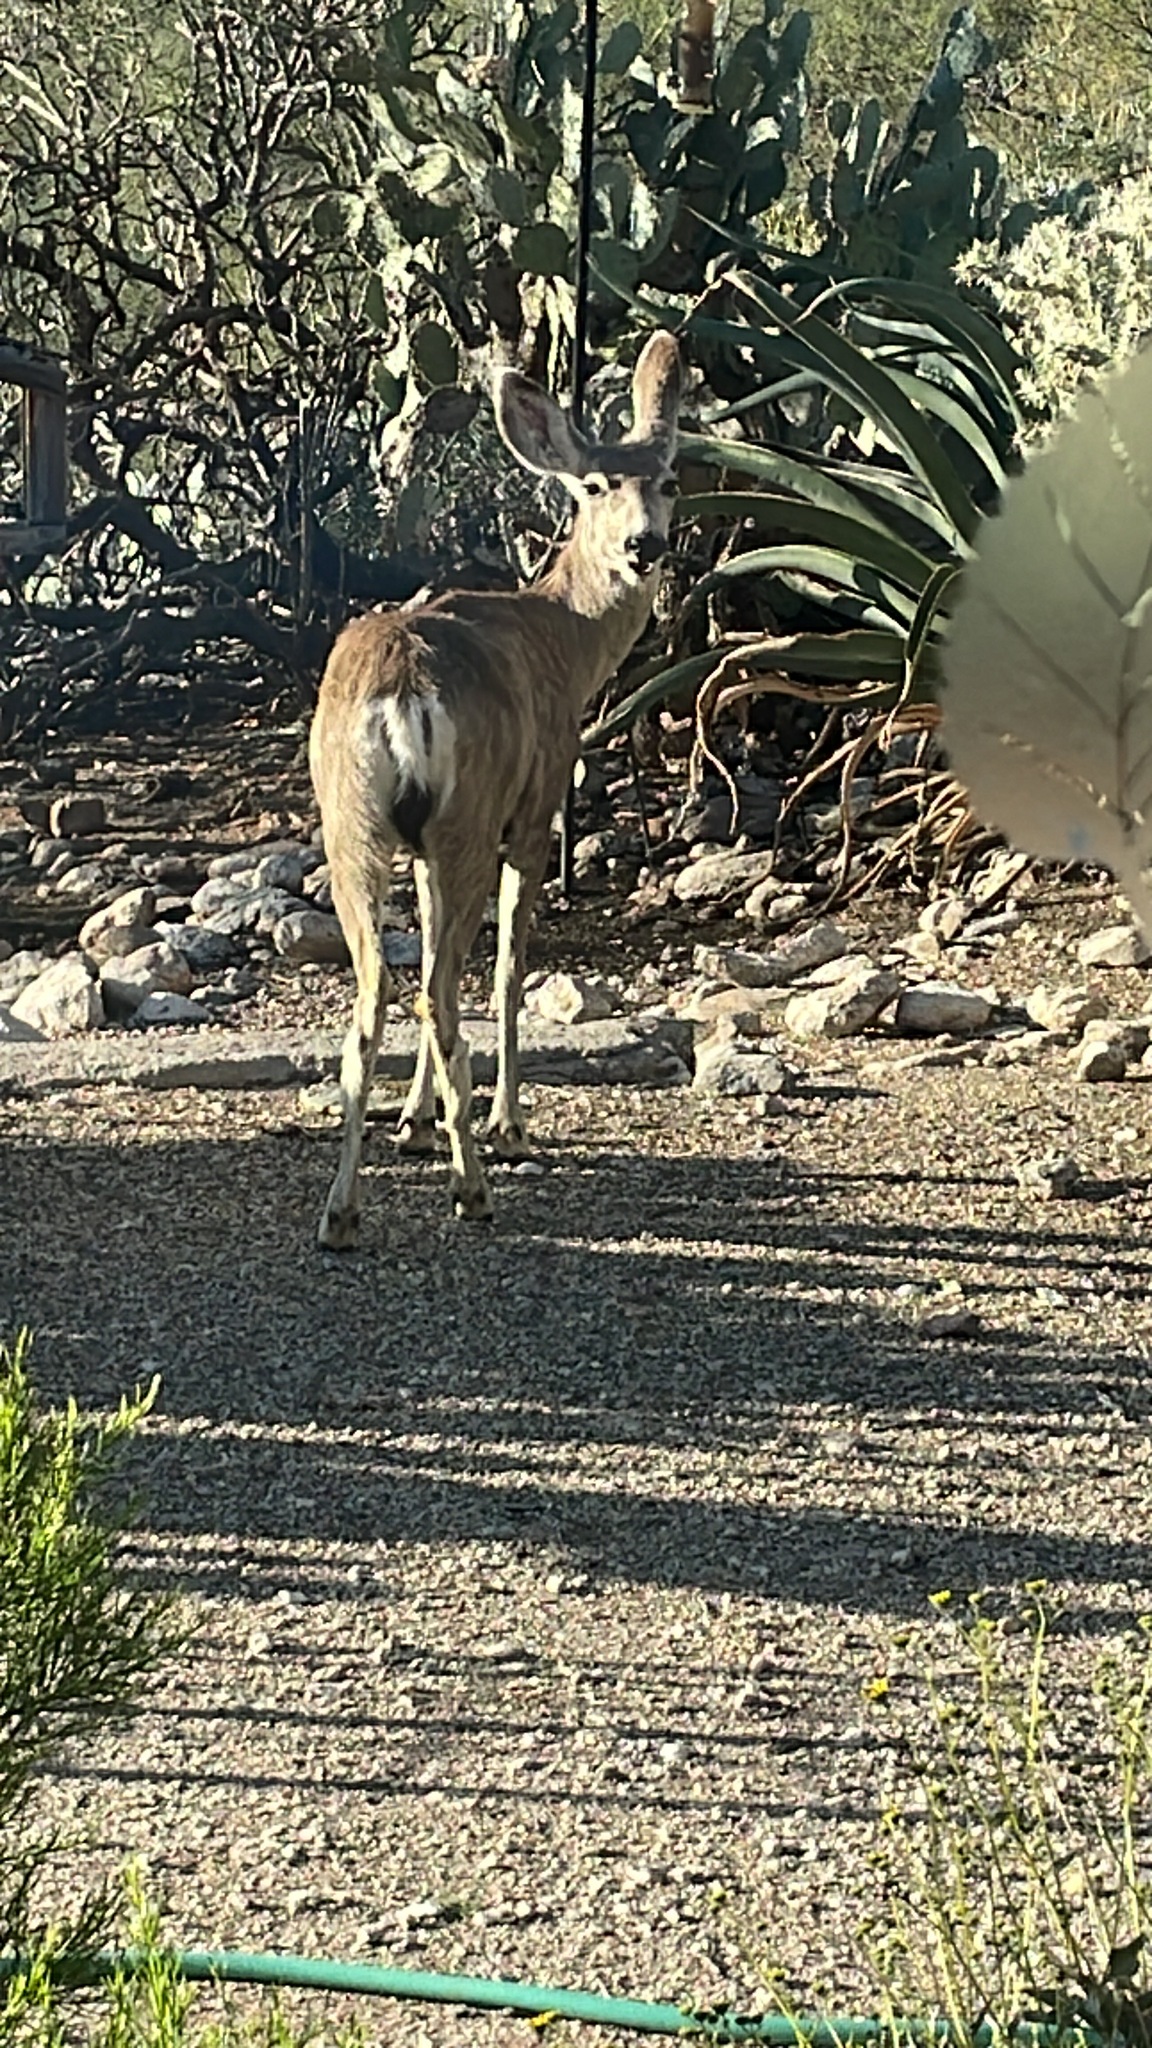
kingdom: Animalia
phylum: Chordata
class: Mammalia
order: Artiodactyla
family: Cervidae
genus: Odocoileus
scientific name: Odocoileus hemionus
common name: Mule deer
